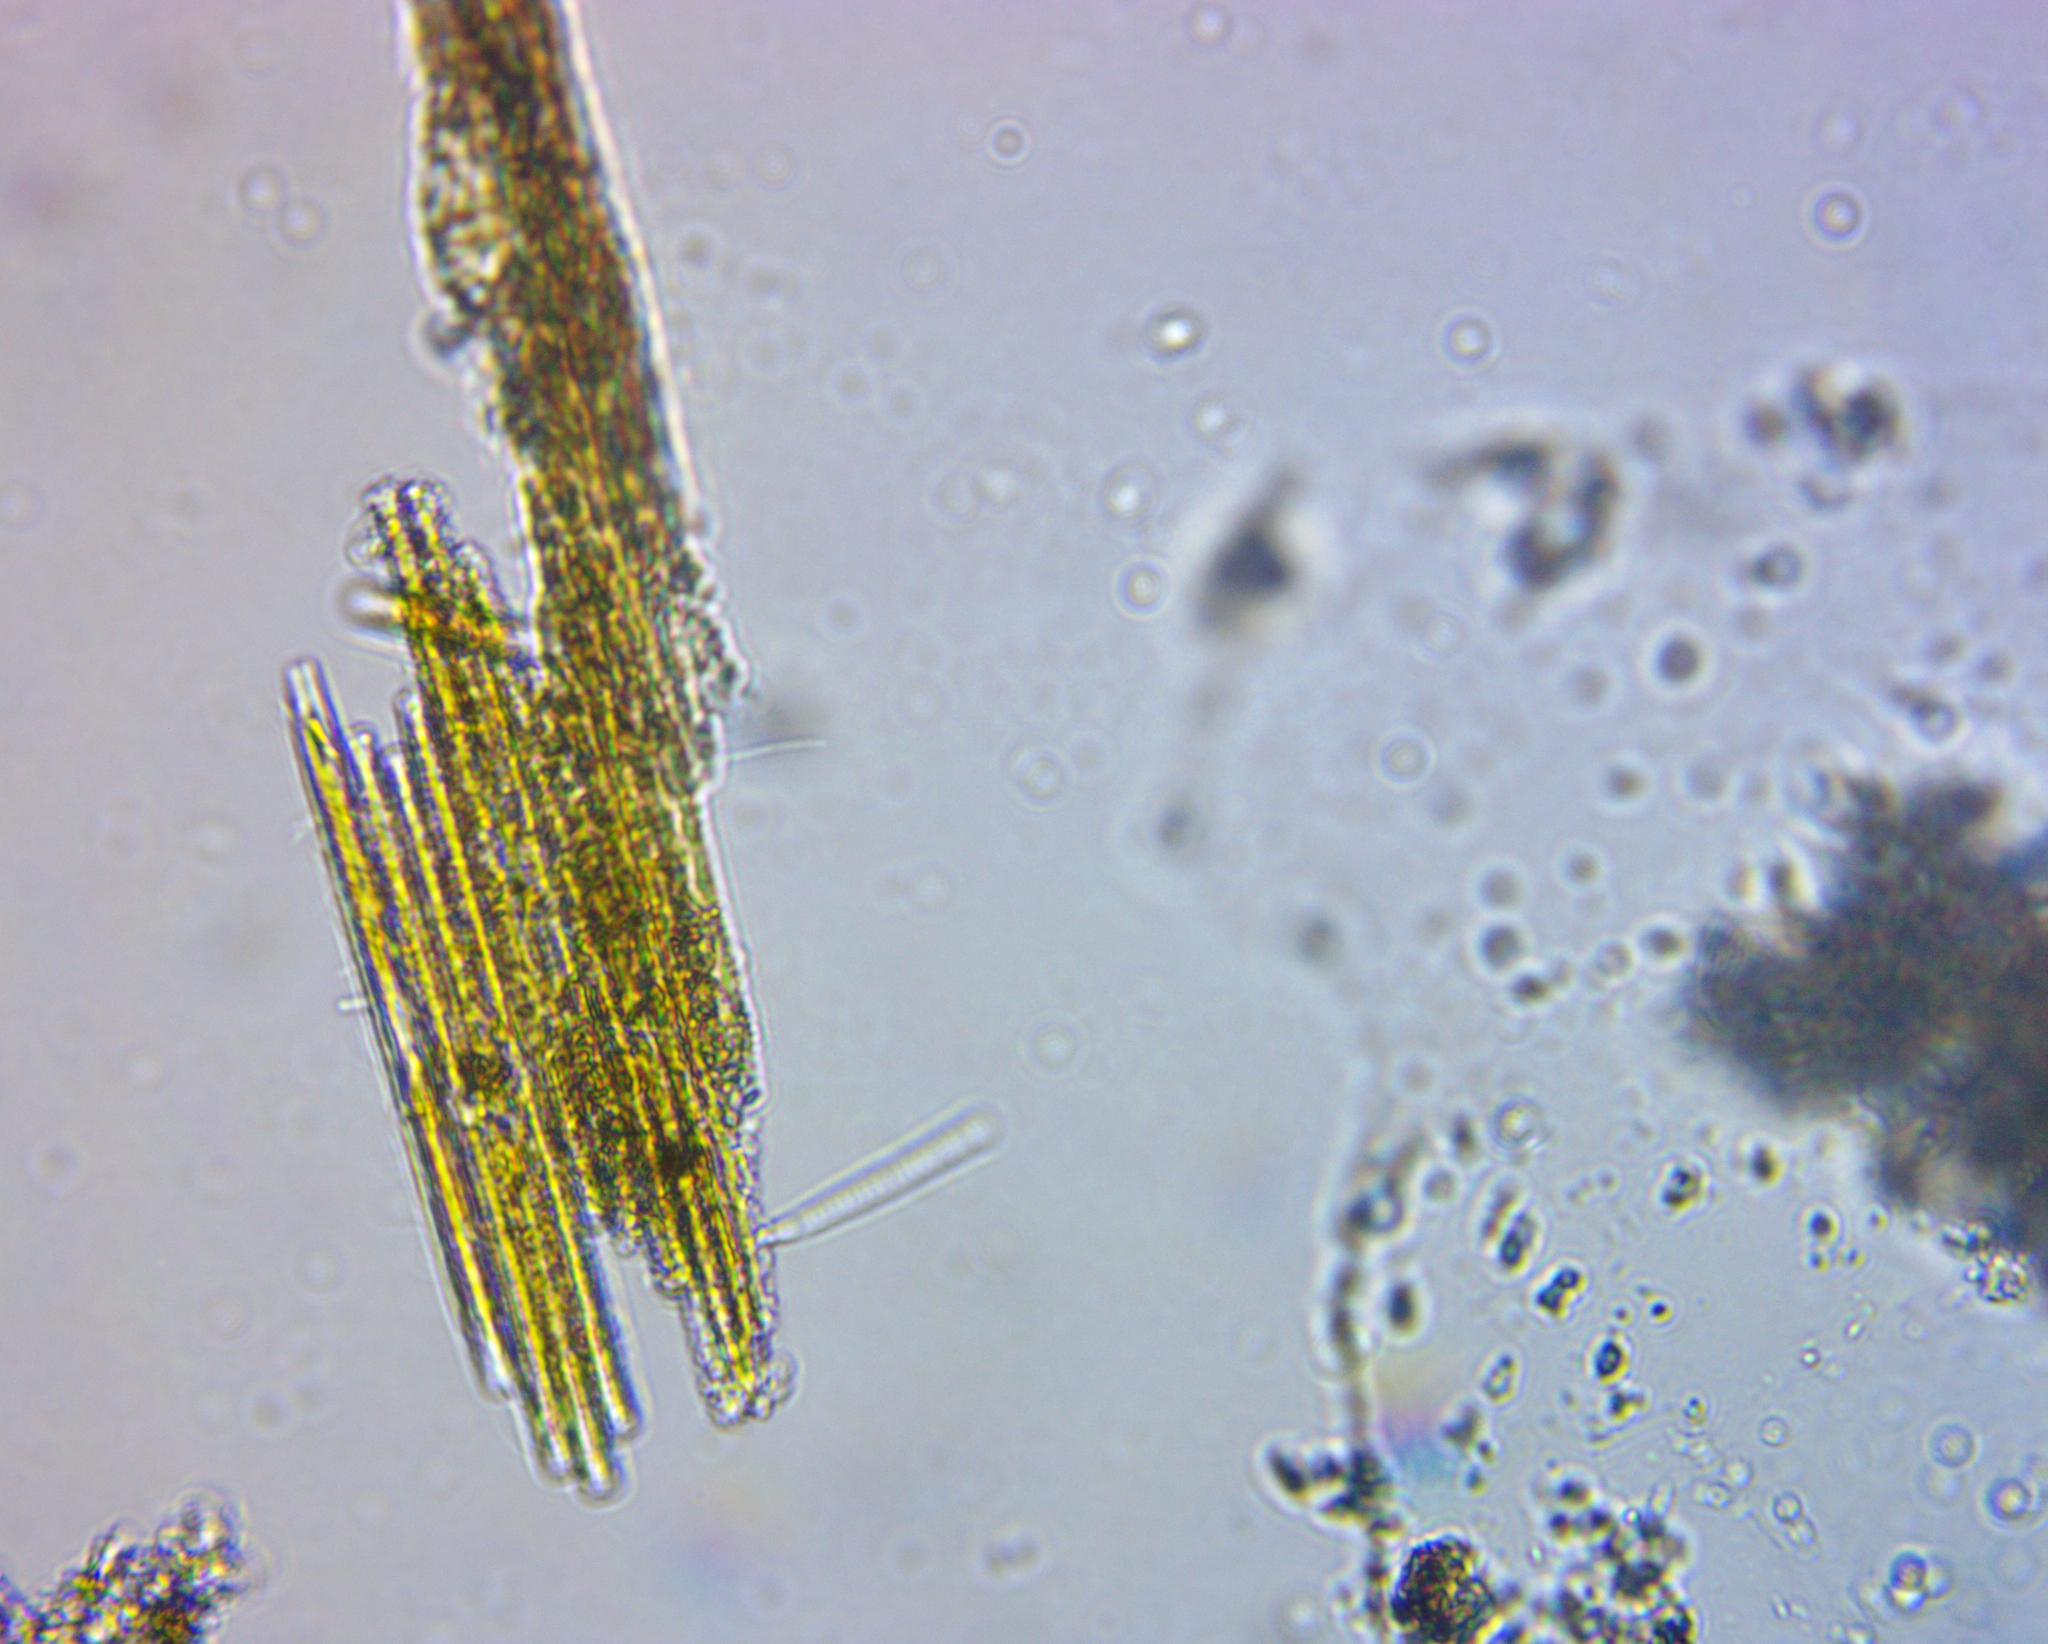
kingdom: Chromista
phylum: Ochrophyta
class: Bacillariophyceae
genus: Vibrio
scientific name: Vibrio paxillifer
